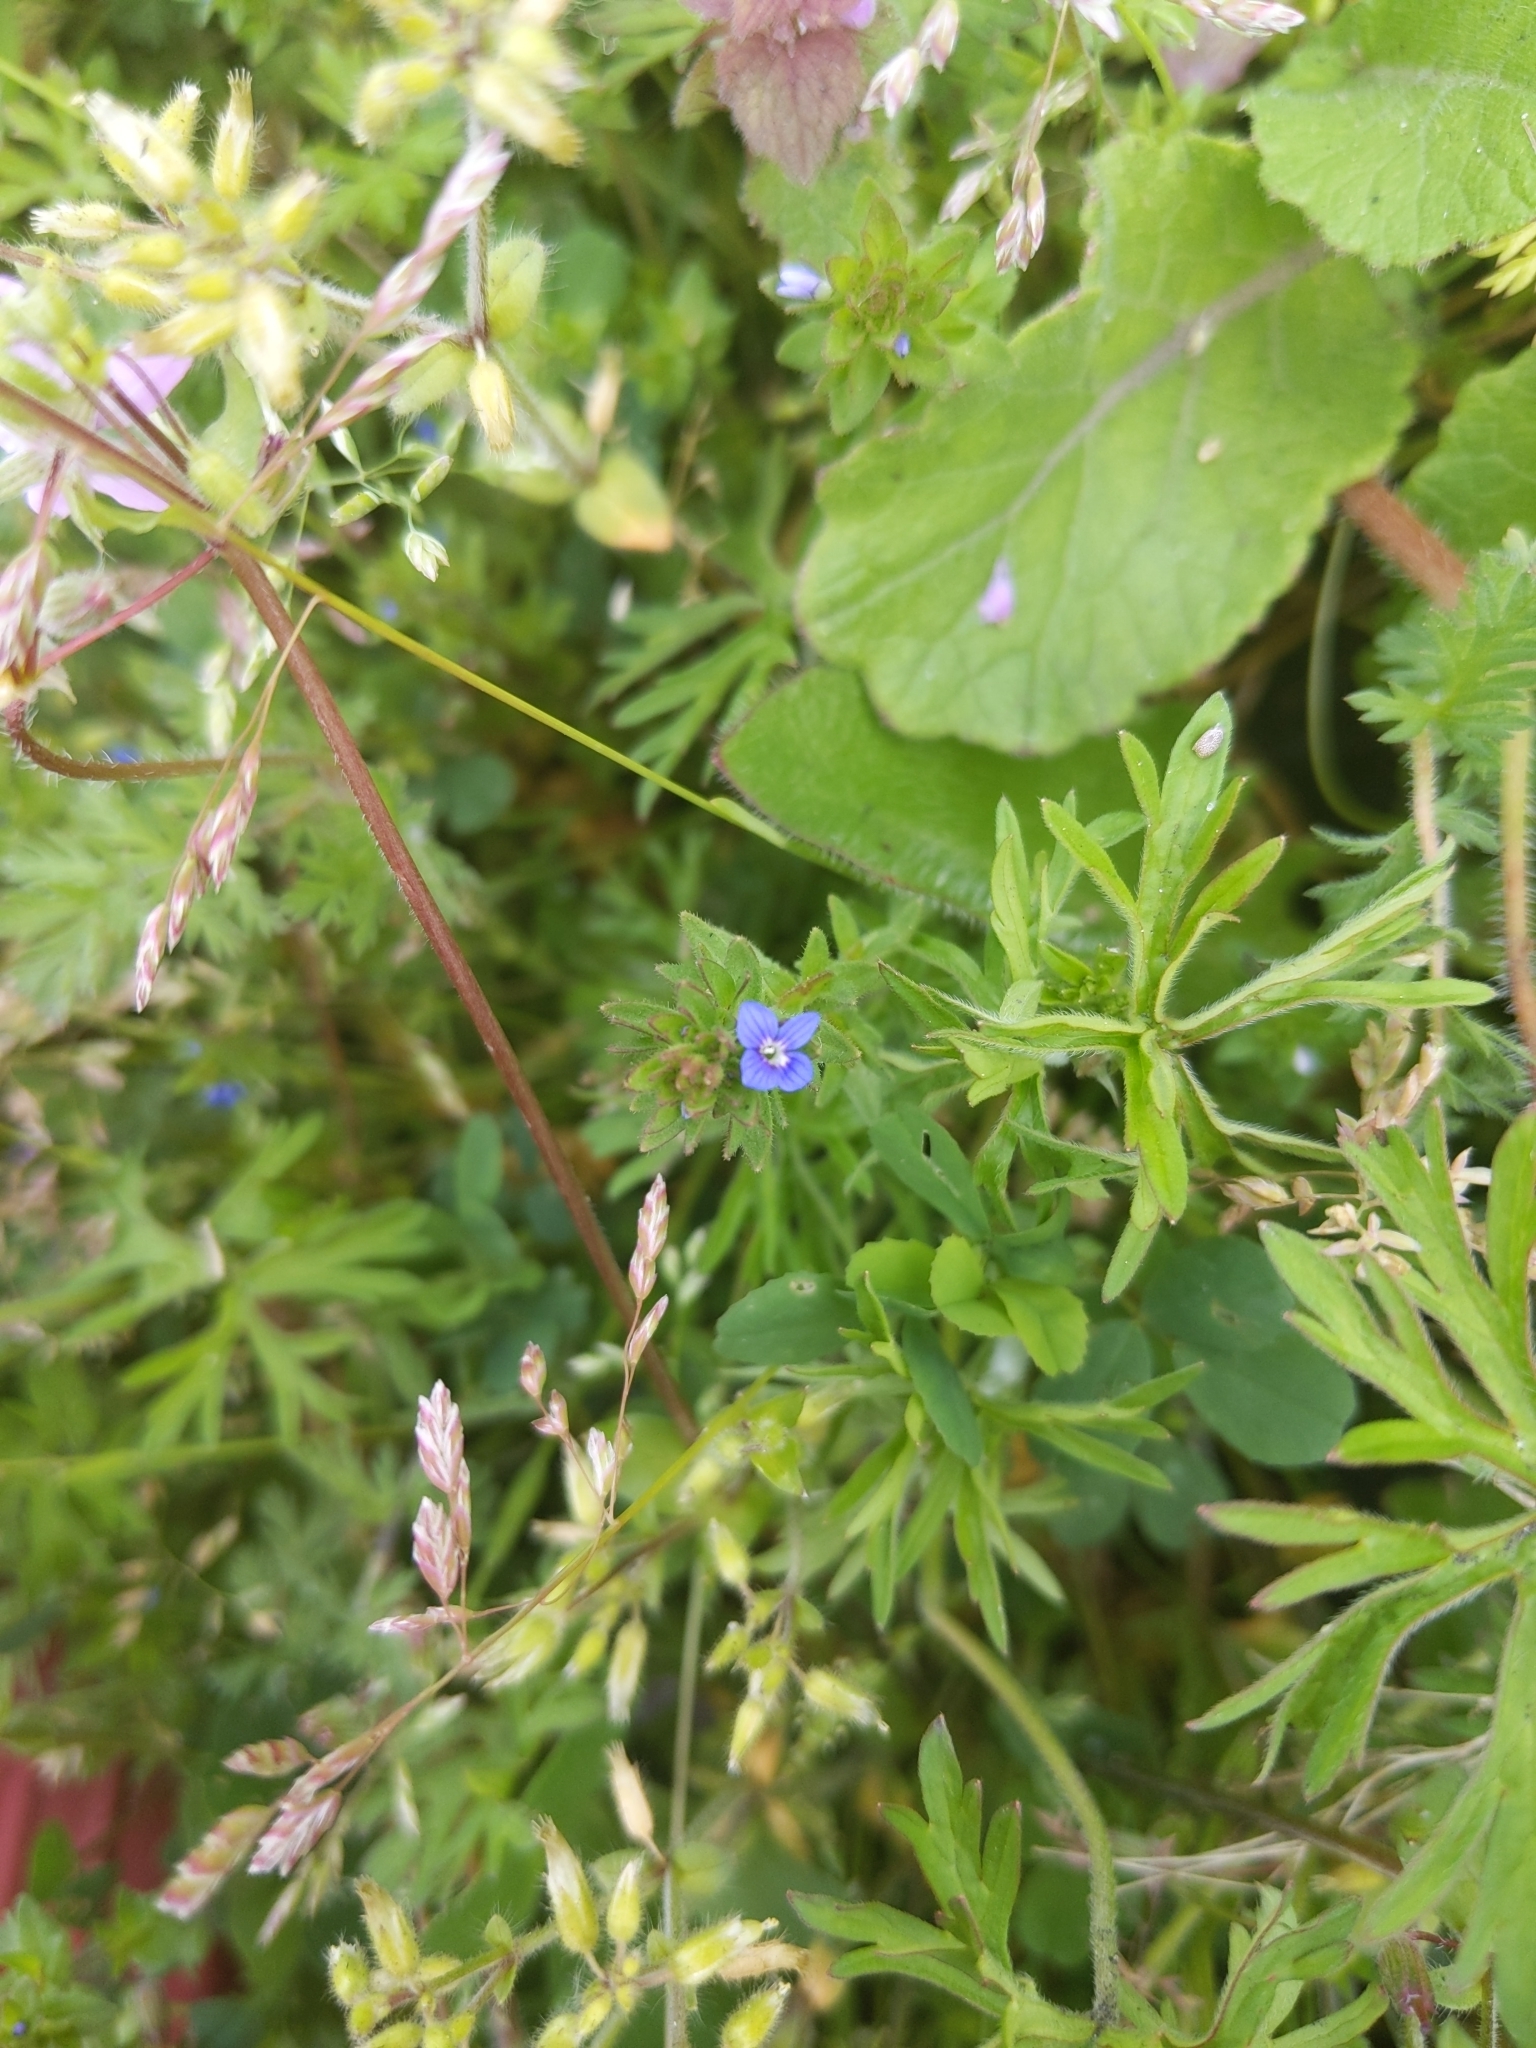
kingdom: Plantae
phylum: Tracheophyta
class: Magnoliopsida
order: Lamiales
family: Plantaginaceae
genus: Veronica
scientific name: Veronica arvensis
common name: Corn speedwell
